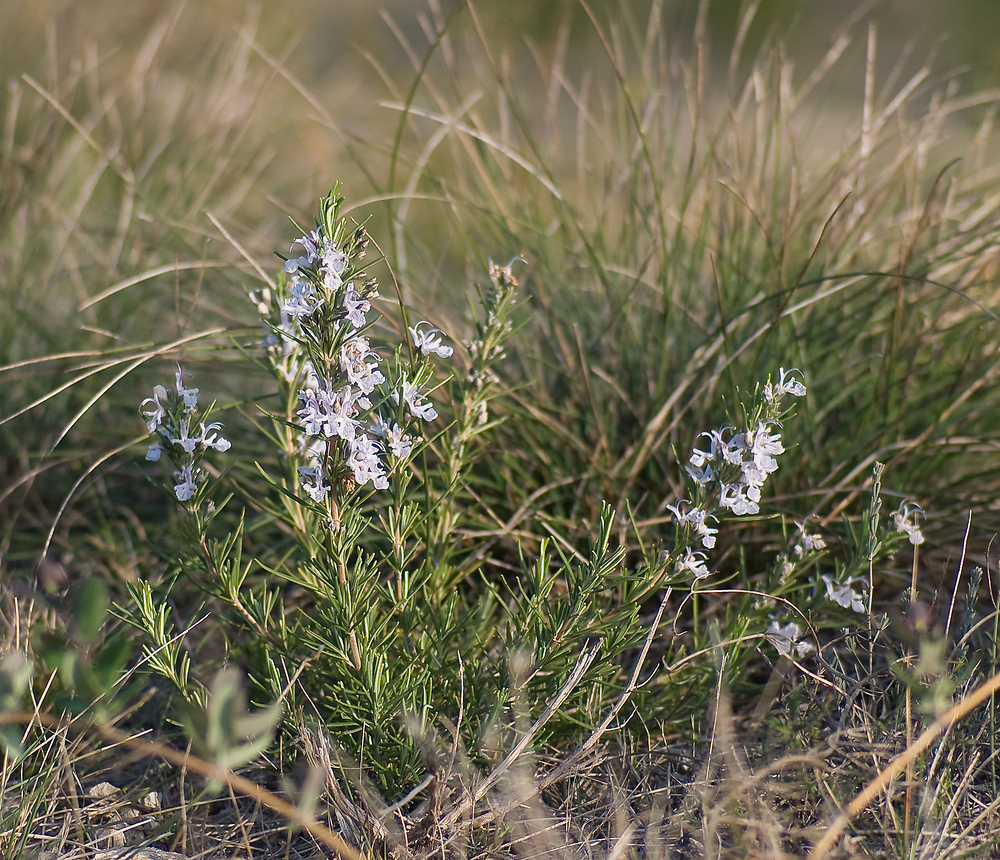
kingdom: Plantae
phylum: Tracheophyta
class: Magnoliopsida
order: Lamiales
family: Lamiaceae
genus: Salvia
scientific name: Salvia rosmarinus
